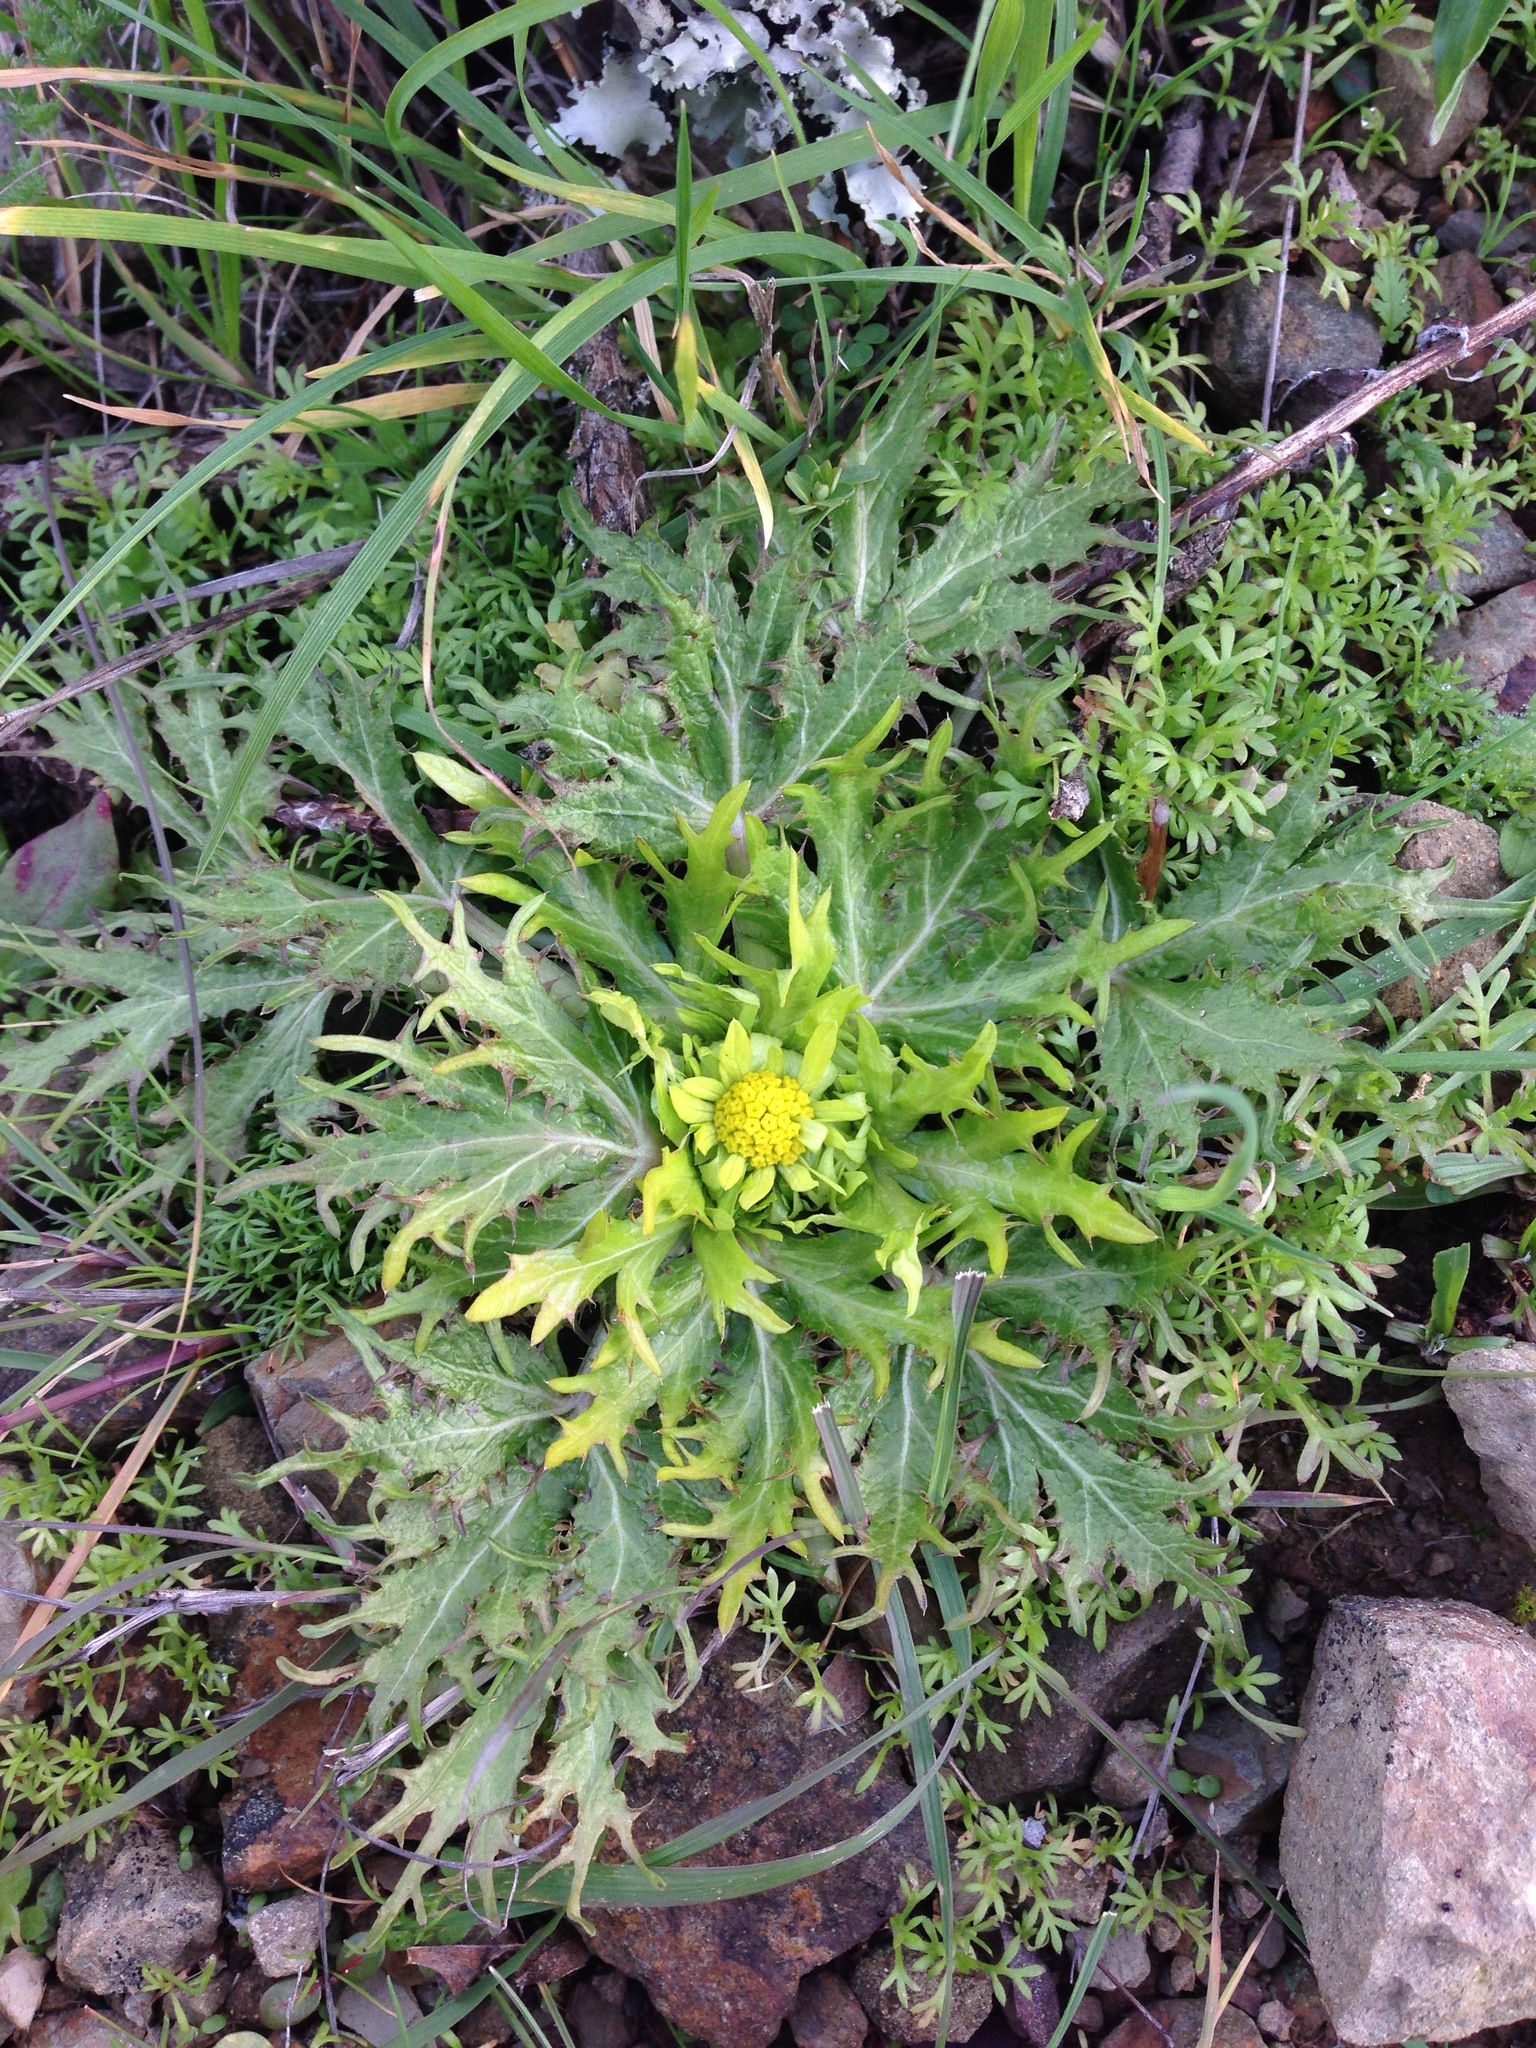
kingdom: Plantae
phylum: Tracheophyta
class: Magnoliopsida
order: Apiales
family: Apiaceae
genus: Sanicula
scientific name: Sanicula arctopoides
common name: Footsteps-of-spring
